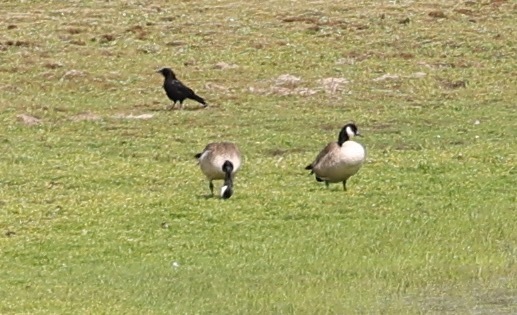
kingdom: Animalia
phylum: Chordata
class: Aves
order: Anseriformes
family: Anatidae
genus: Branta
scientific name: Branta canadensis
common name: Canada goose
